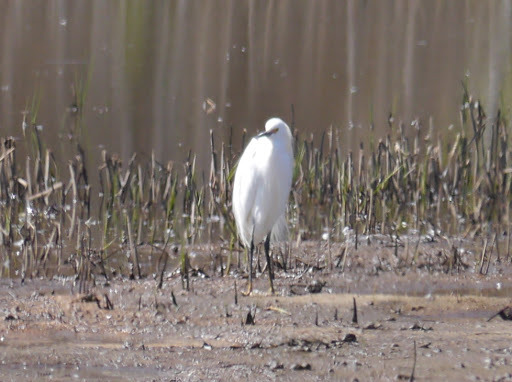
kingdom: Animalia
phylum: Chordata
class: Aves
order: Pelecaniformes
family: Ardeidae
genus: Egretta
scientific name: Egretta thula
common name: Snowy egret
